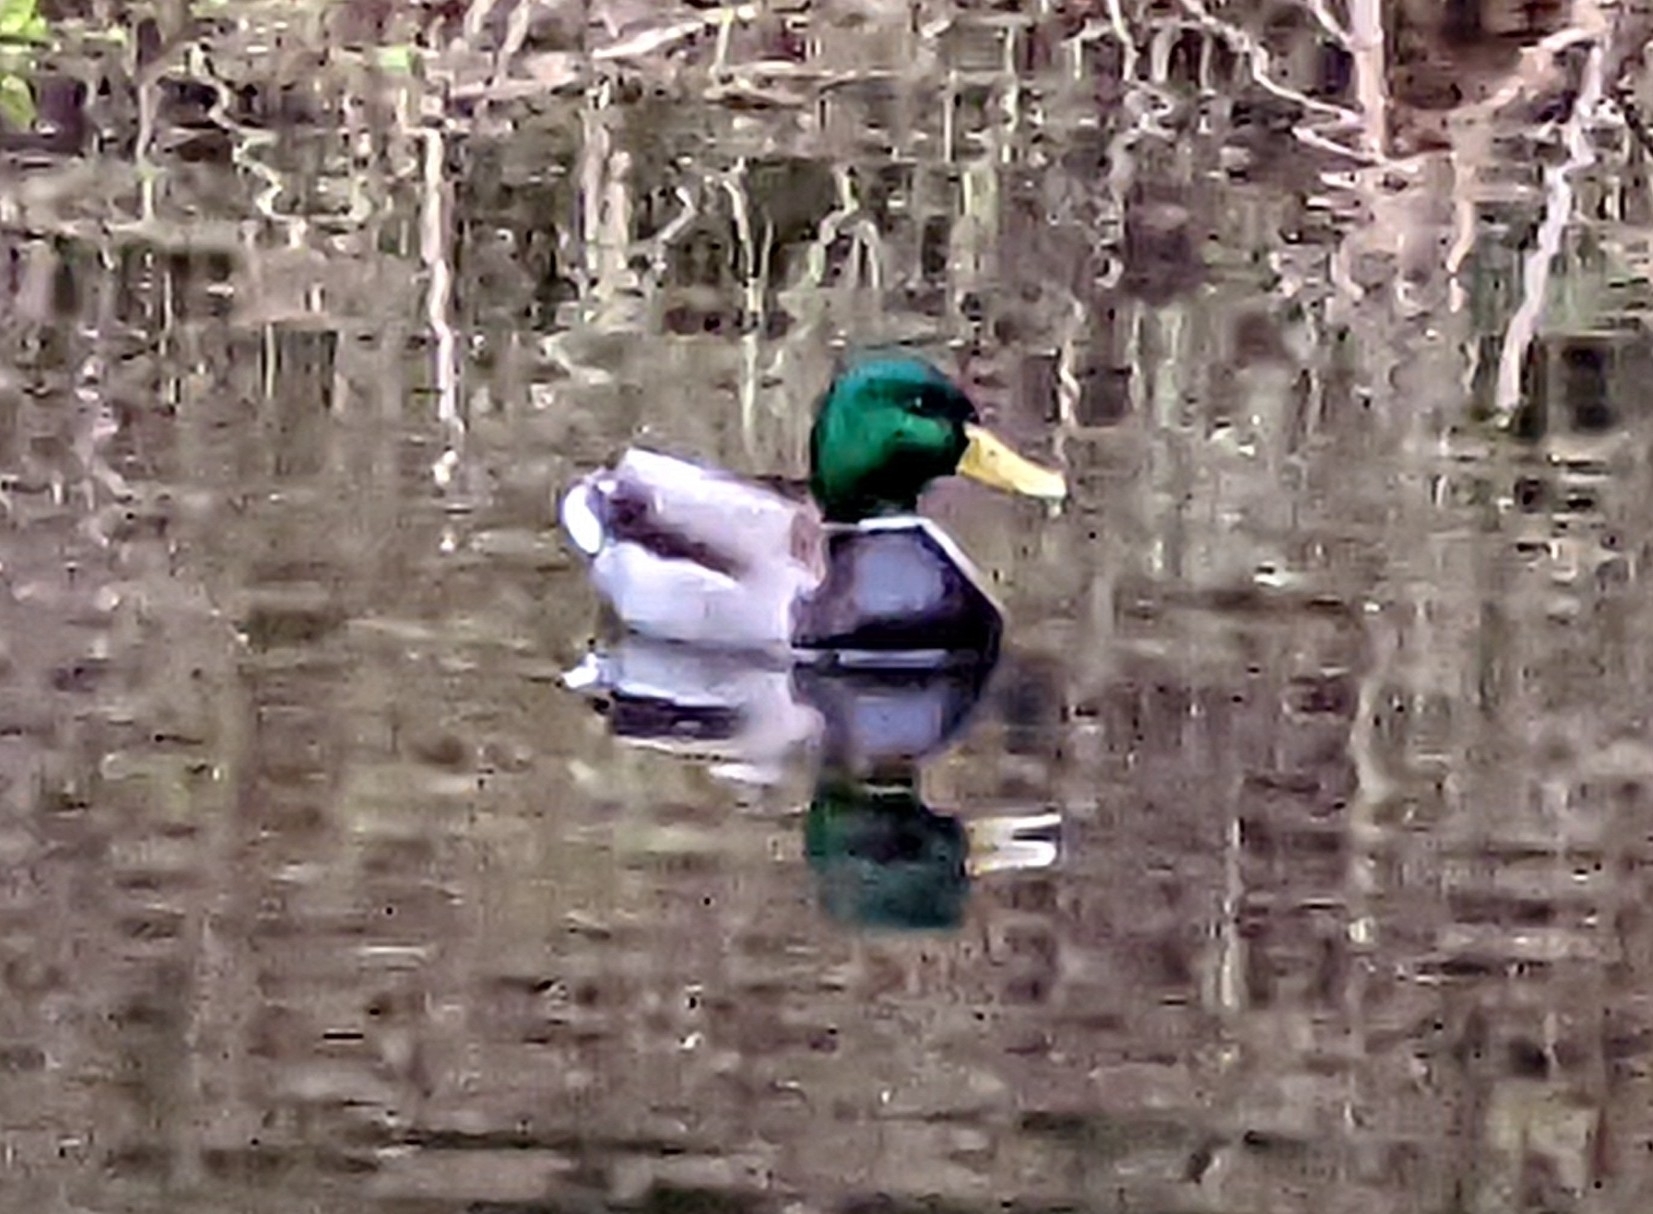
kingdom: Animalia
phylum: Chordata
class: Aves
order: Anseriformes
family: Anatidae
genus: Anas
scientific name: Anas platyrhynchos
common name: Mallard
